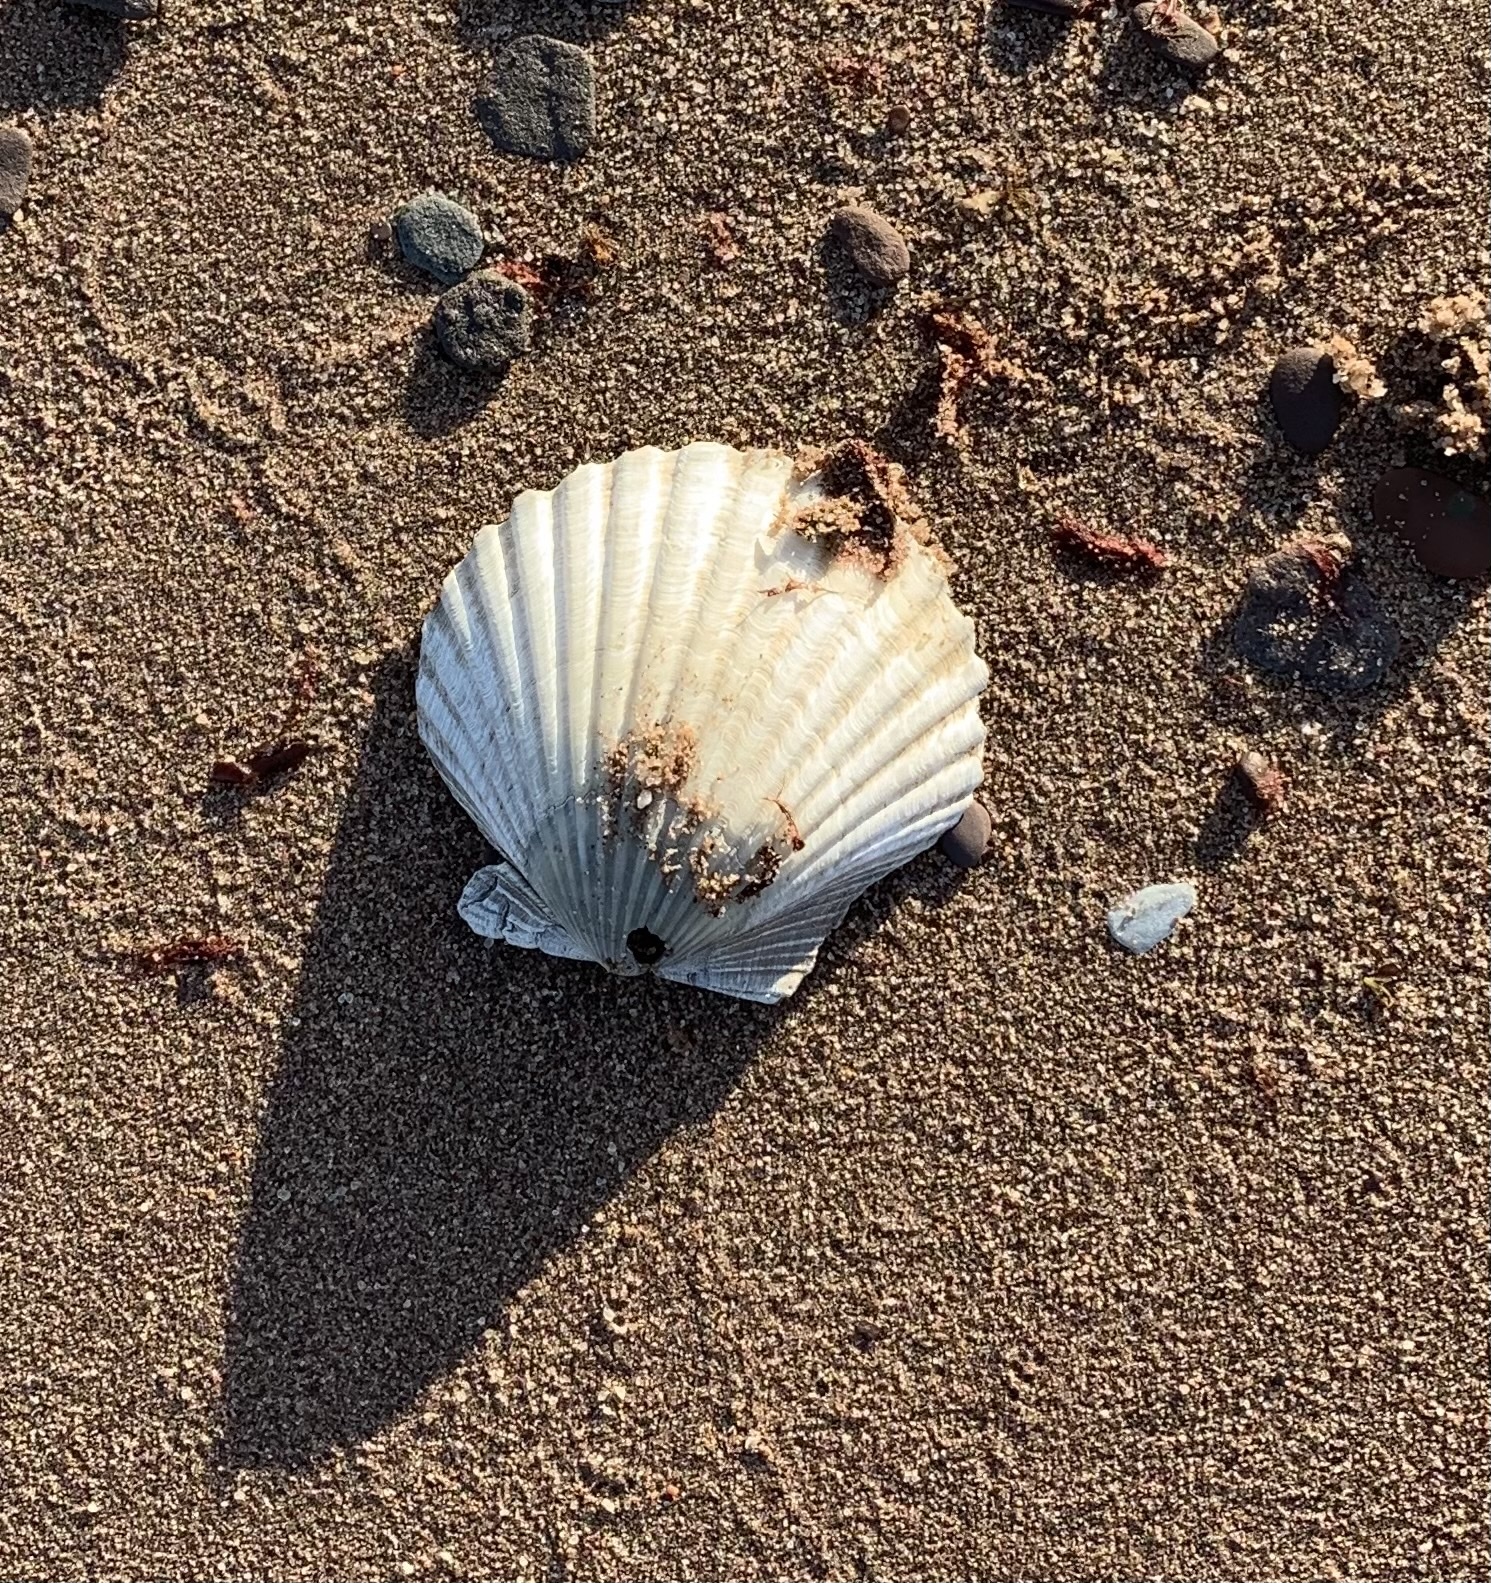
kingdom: Animalia
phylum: Mollusca
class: Bivalvia
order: Pectinida
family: Pectinidae
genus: Argopecten
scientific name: Argopecten irradians
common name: Atlantic bay scallop
